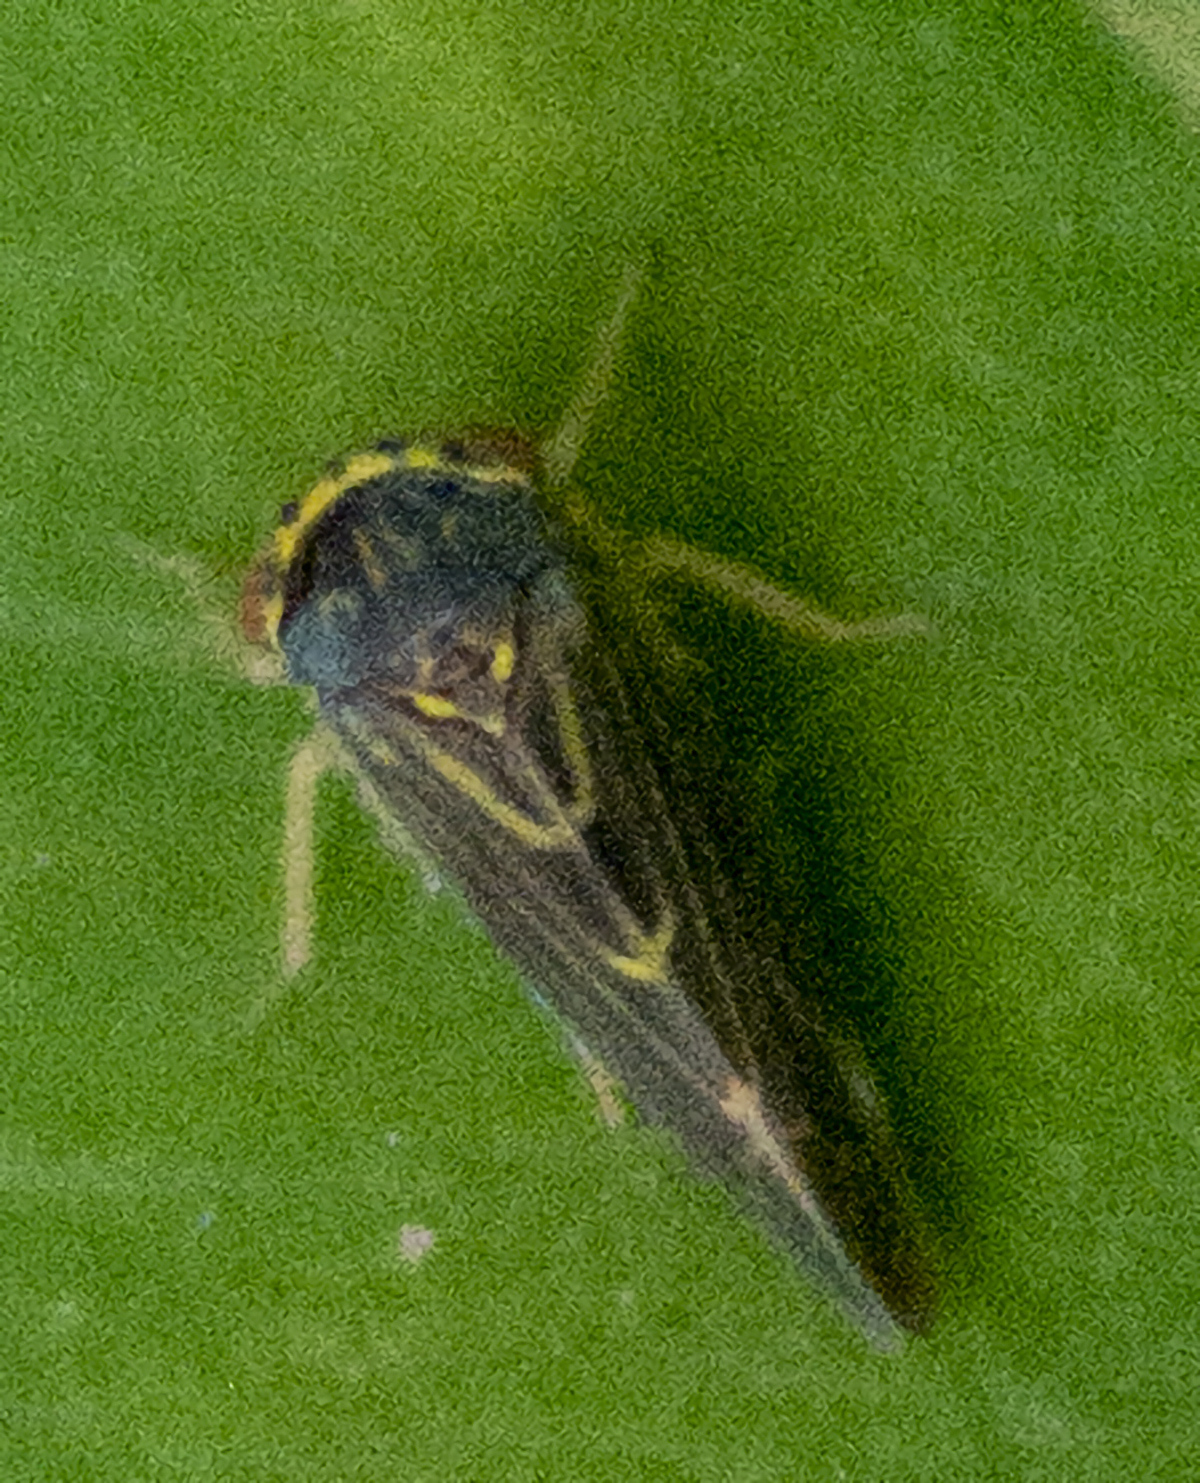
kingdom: Animalia
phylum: Arthropoda
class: Insecta
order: Hemiptera
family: Cicadellidae
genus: Agalliopsis
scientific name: Agalliopsis novella
